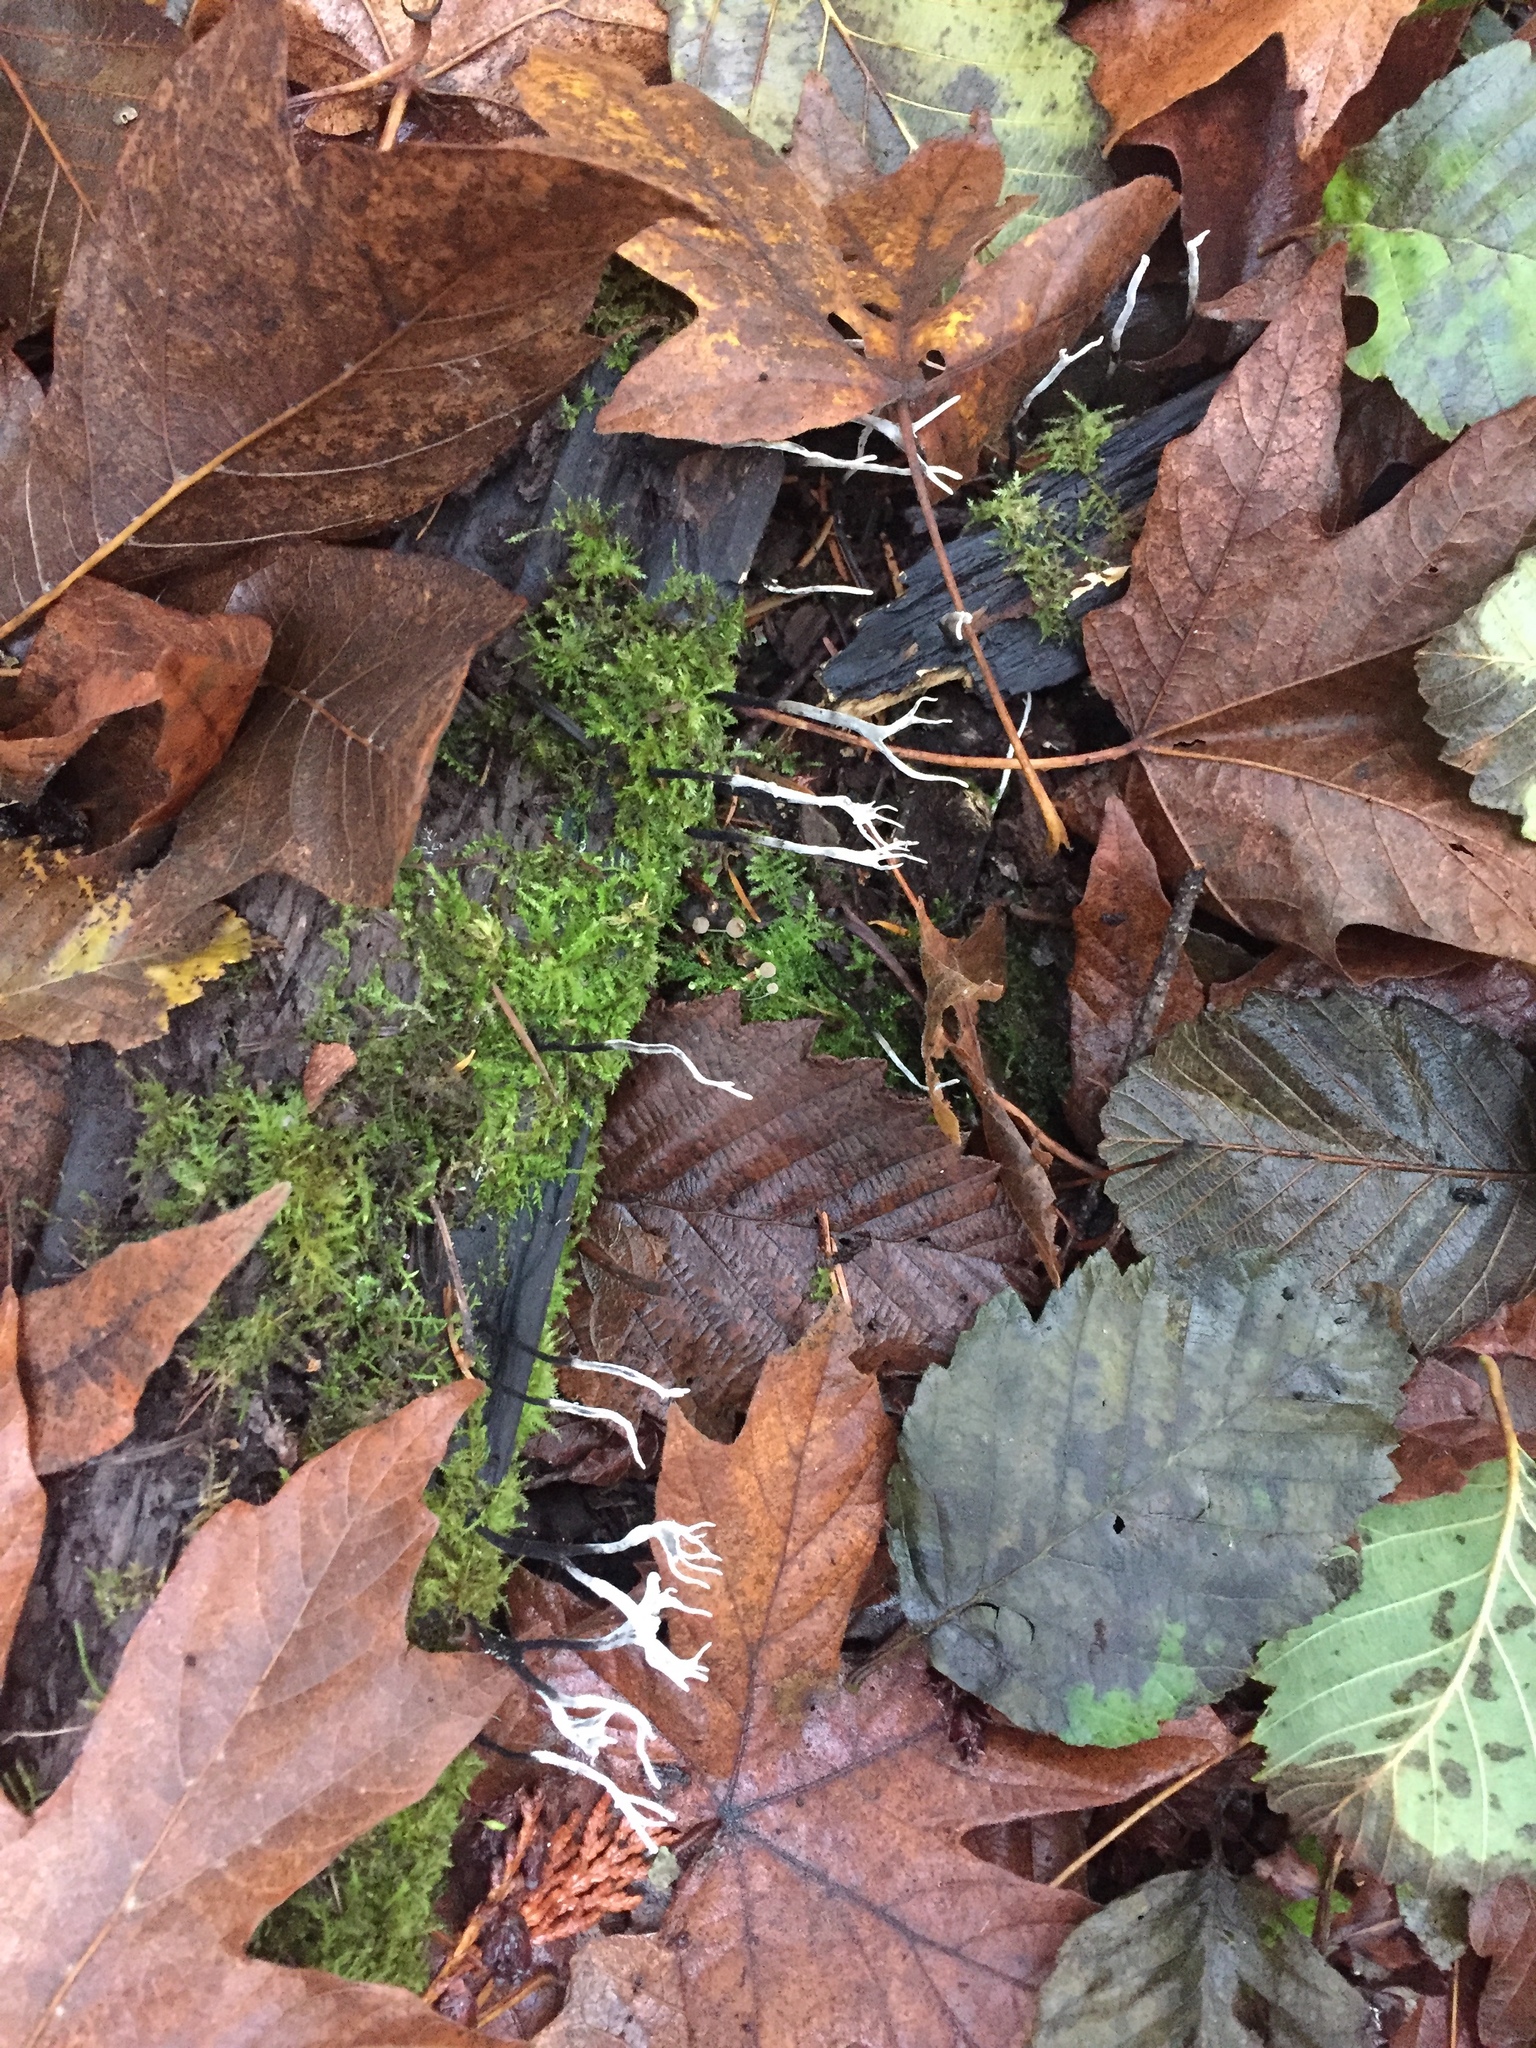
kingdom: Fungi
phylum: Ascomycota
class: Sordariomycetes
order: Xylariales
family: Xylariaceae
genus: Xylaria
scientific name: Xylaria hypoxylon
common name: Candle-snuff fungus
